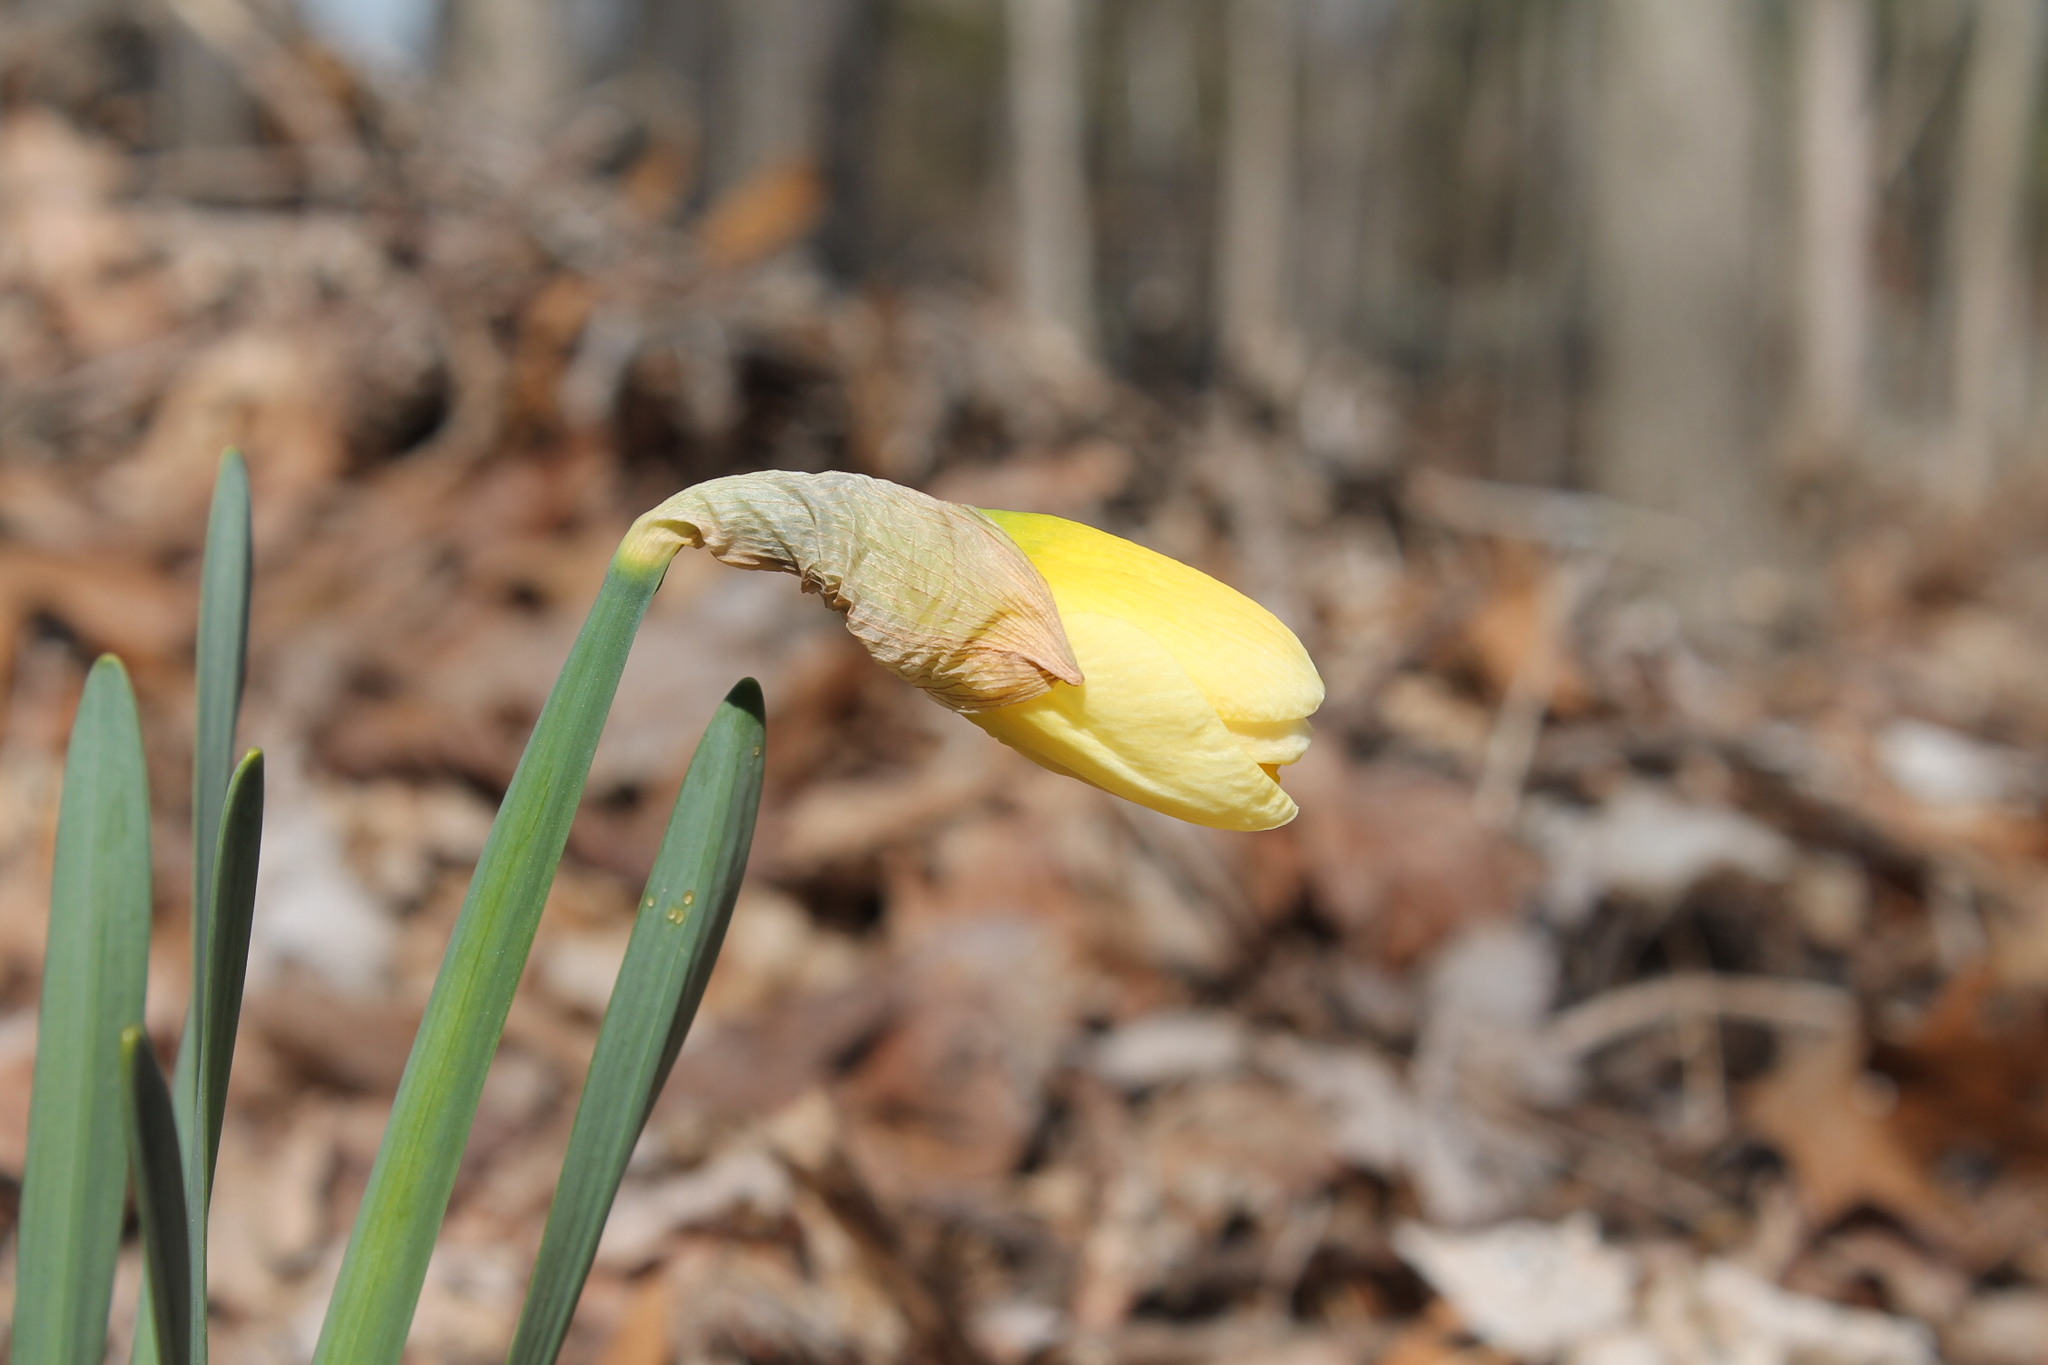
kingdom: Plantae
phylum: Tracheophyta
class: Liliopsida
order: Asparagales
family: Amaryllidaceae
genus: Narcissus
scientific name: Narcissus
